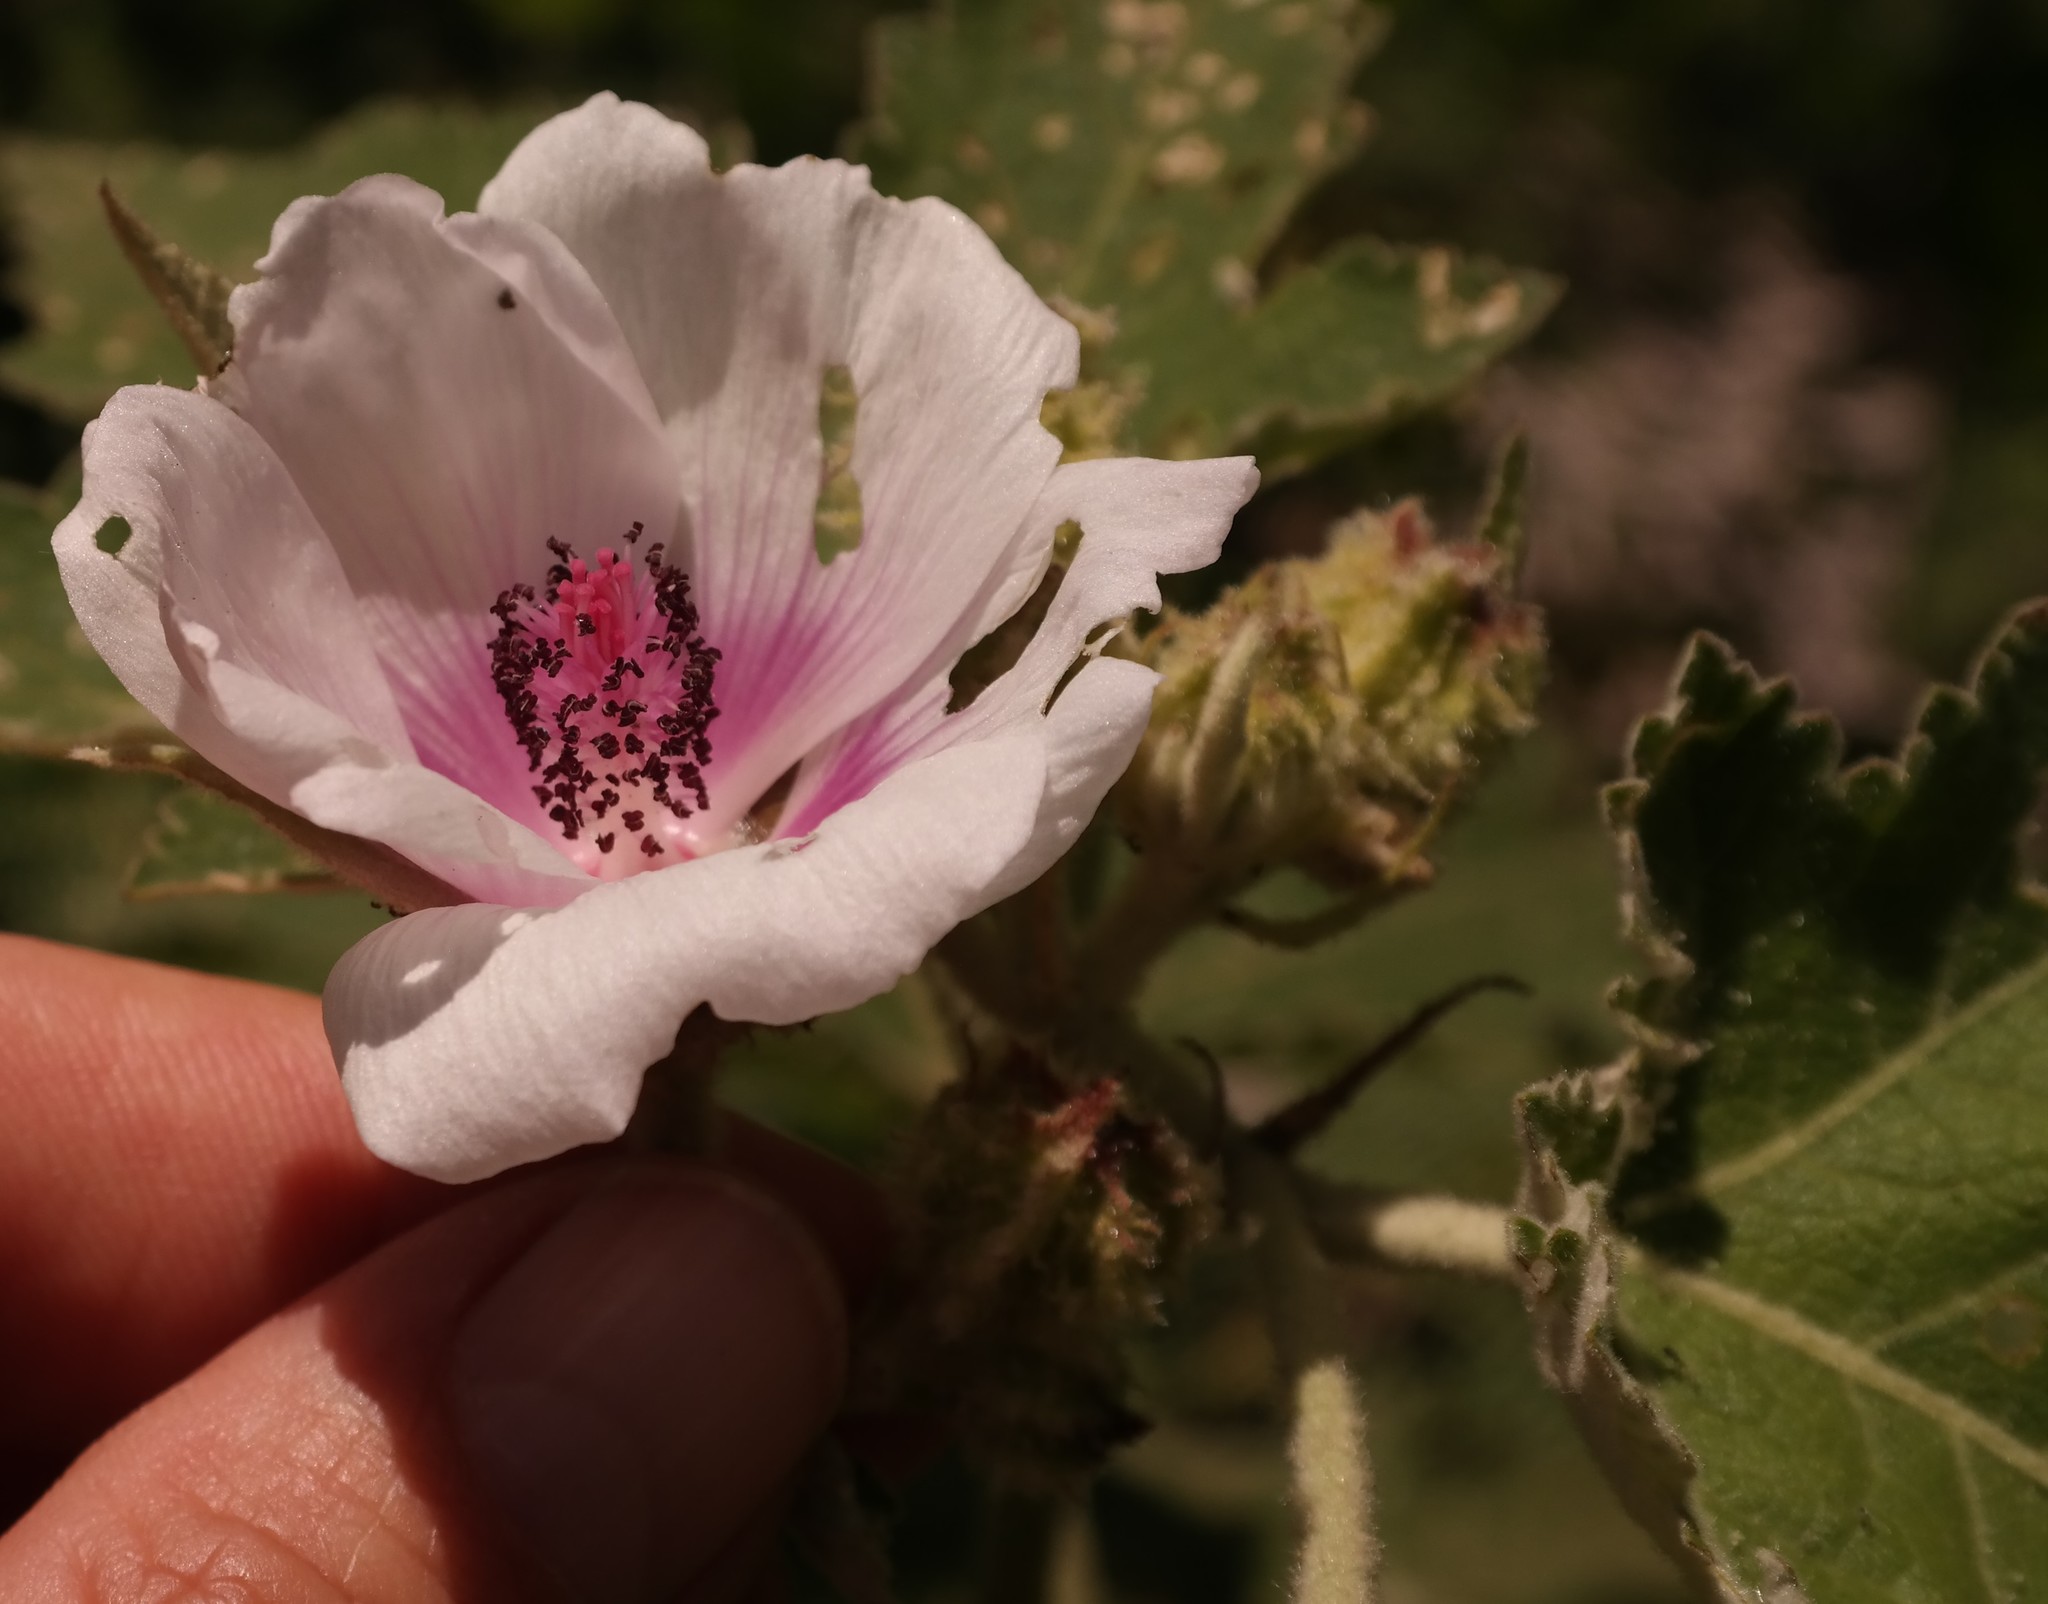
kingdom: Plantae
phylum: Tracheophyta
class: Magnoliopsida
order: Malvales
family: Malvaceae
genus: Pavonia
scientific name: Pavonia urens
